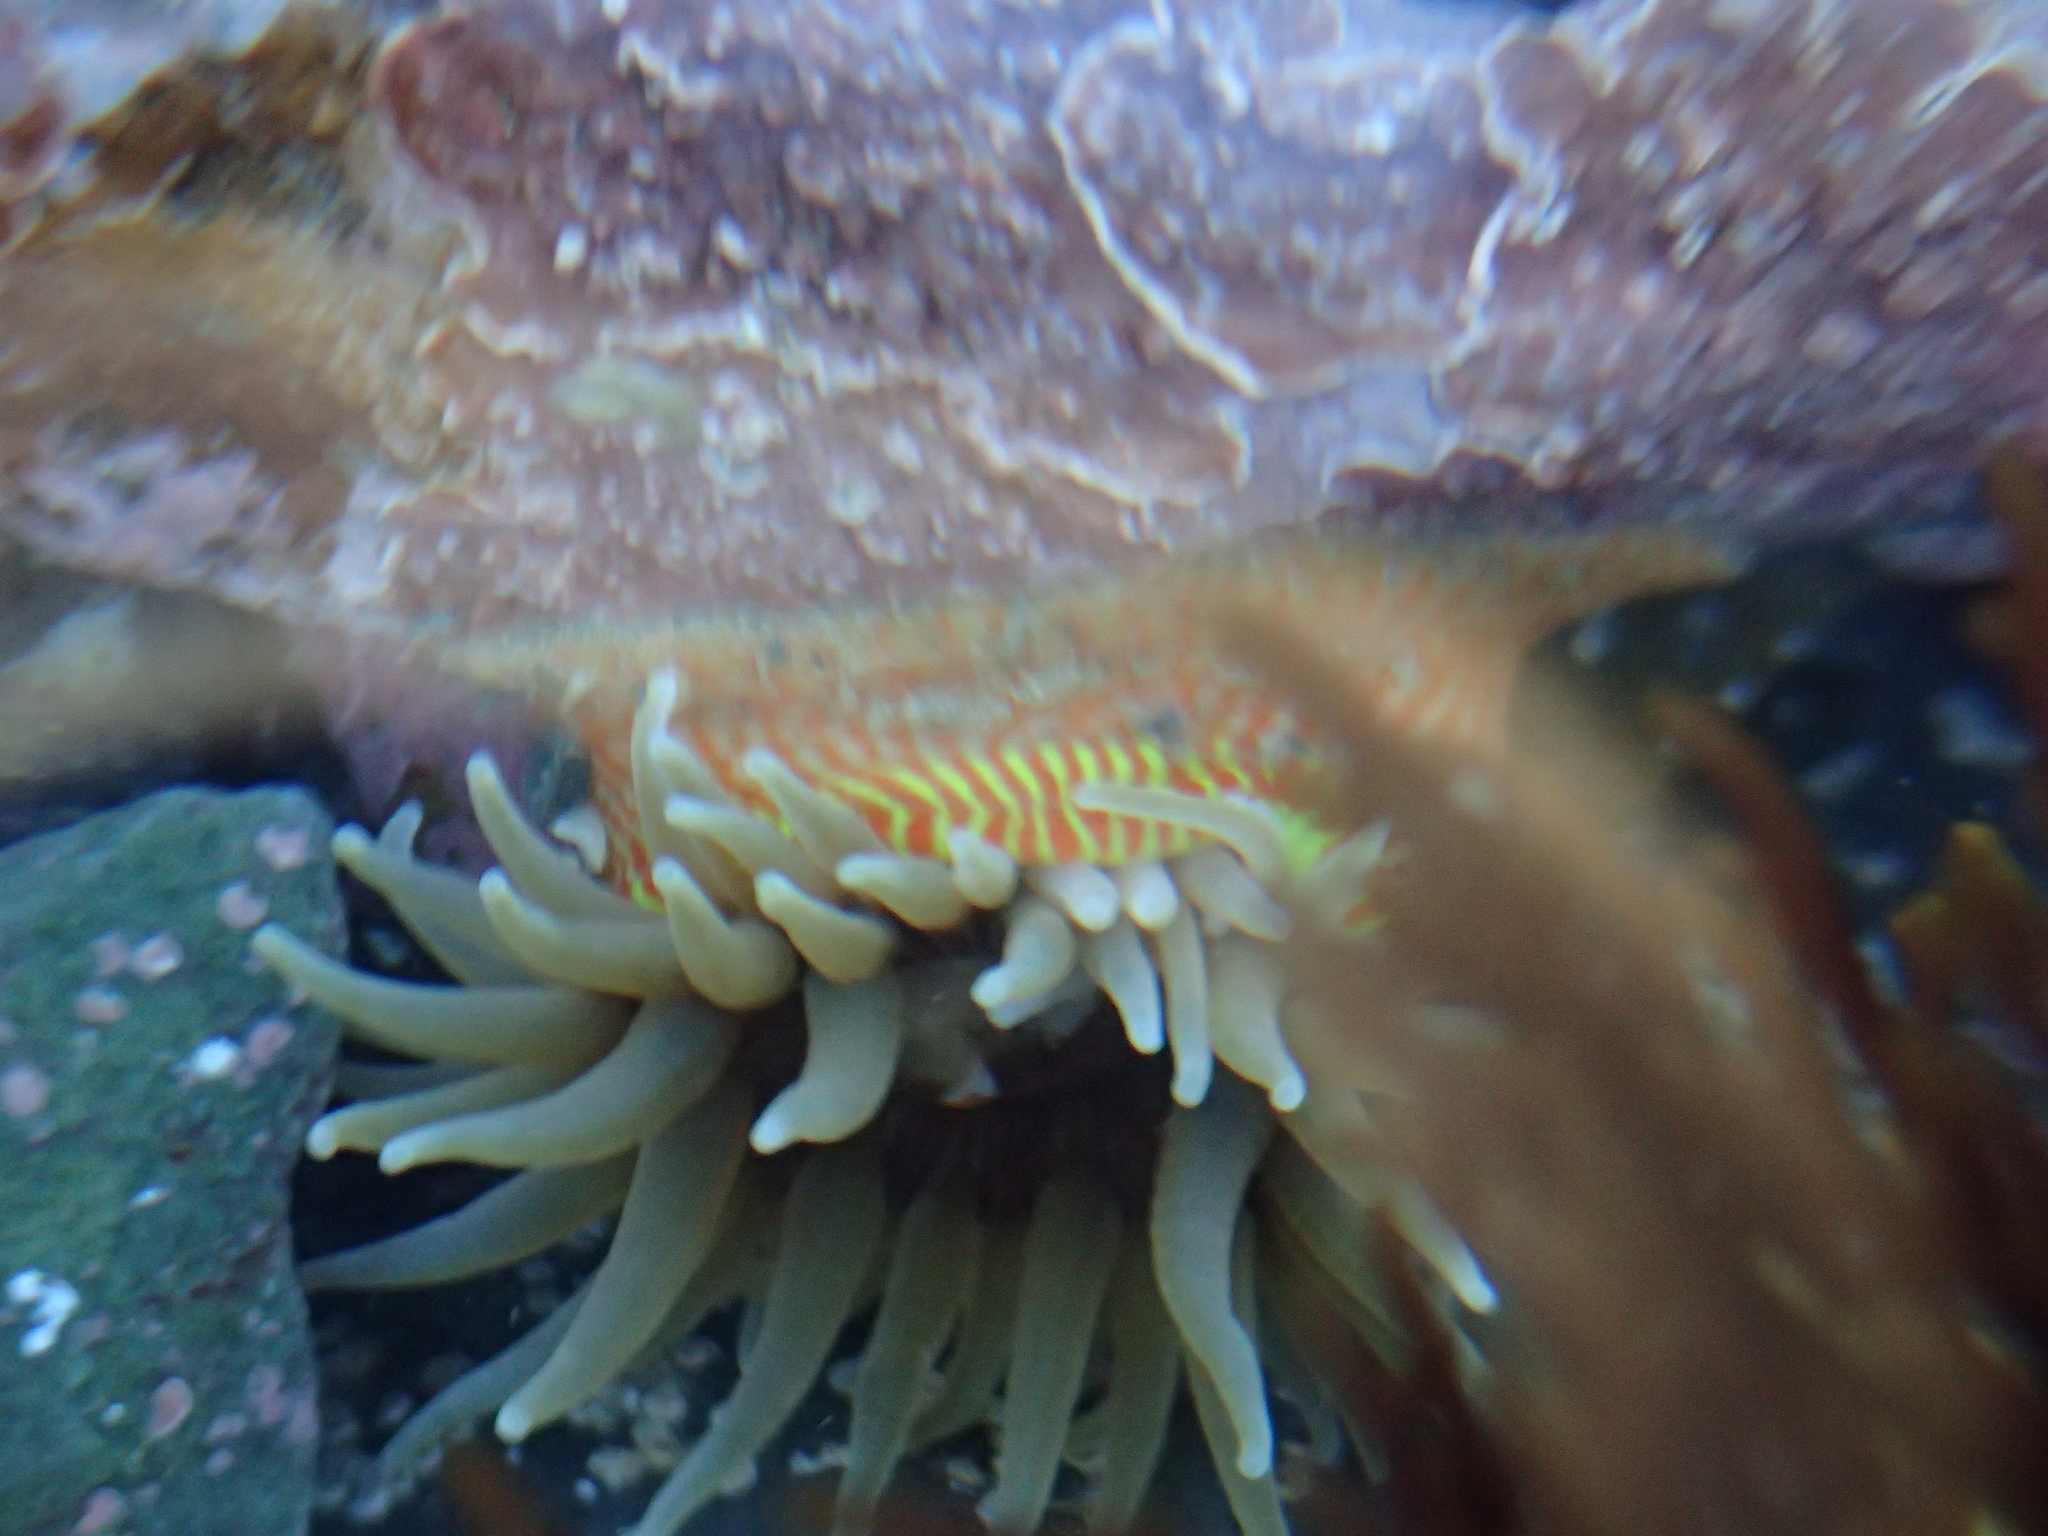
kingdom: Animalia
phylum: Cnidaria
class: Anthozoa
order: Actiniaria
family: Actiniidae
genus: Epiactis
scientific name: Epiactis thompsoni
